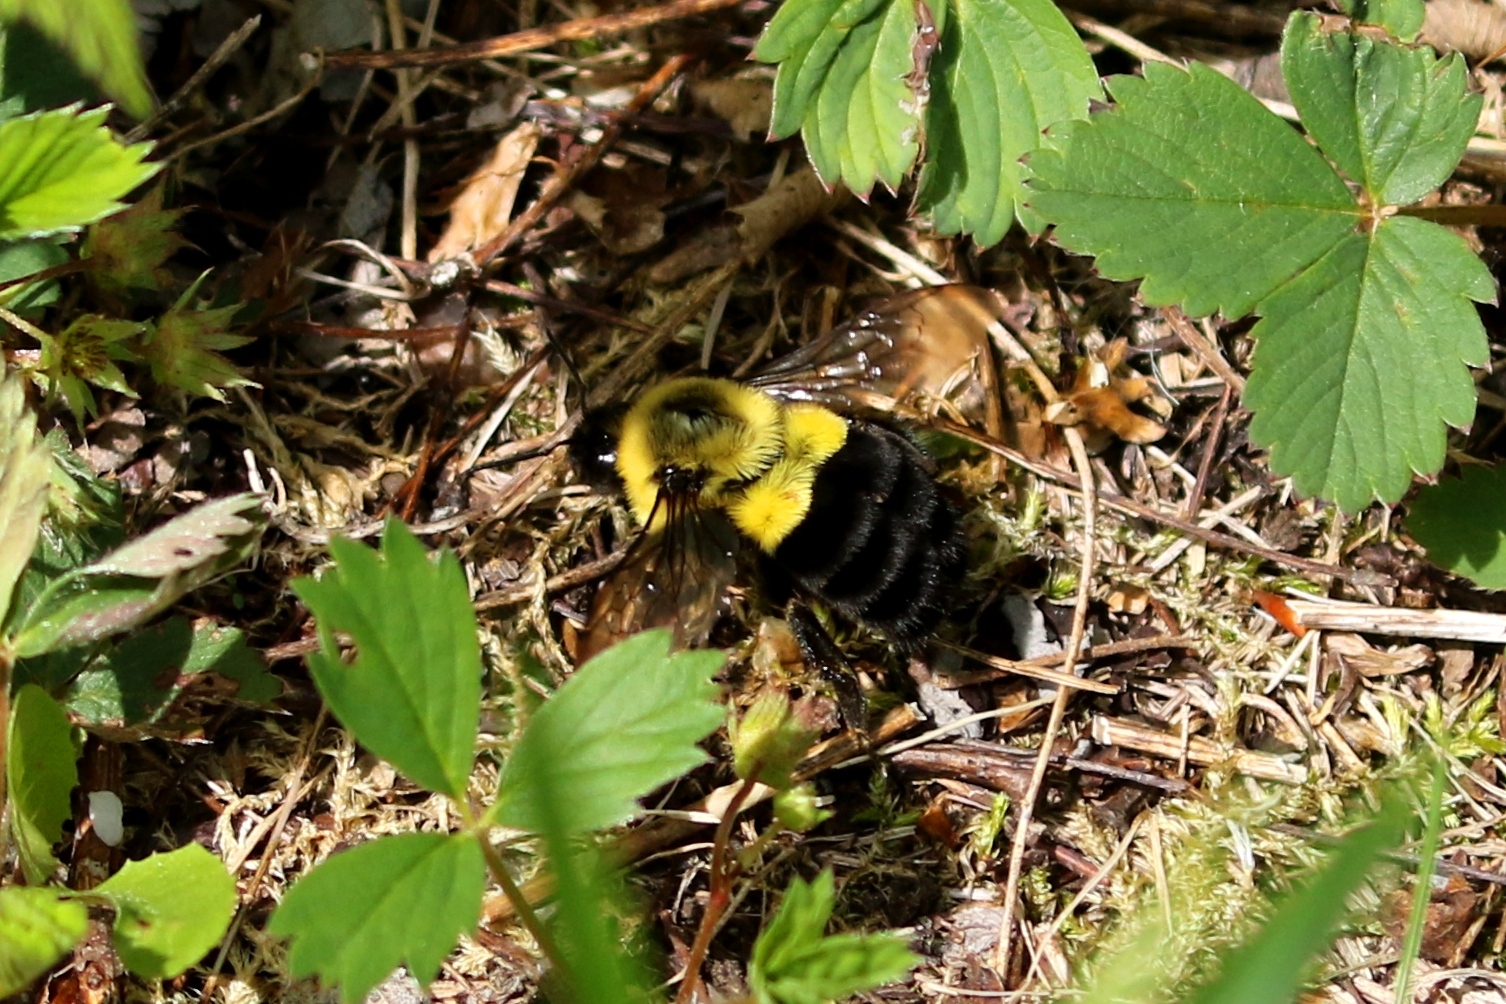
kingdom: Animalia
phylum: Arthropoda
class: Insecta
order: Hymenoptera
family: Apidae
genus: Bombus
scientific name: Bombus impatiens
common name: Common eastern bumble bee
